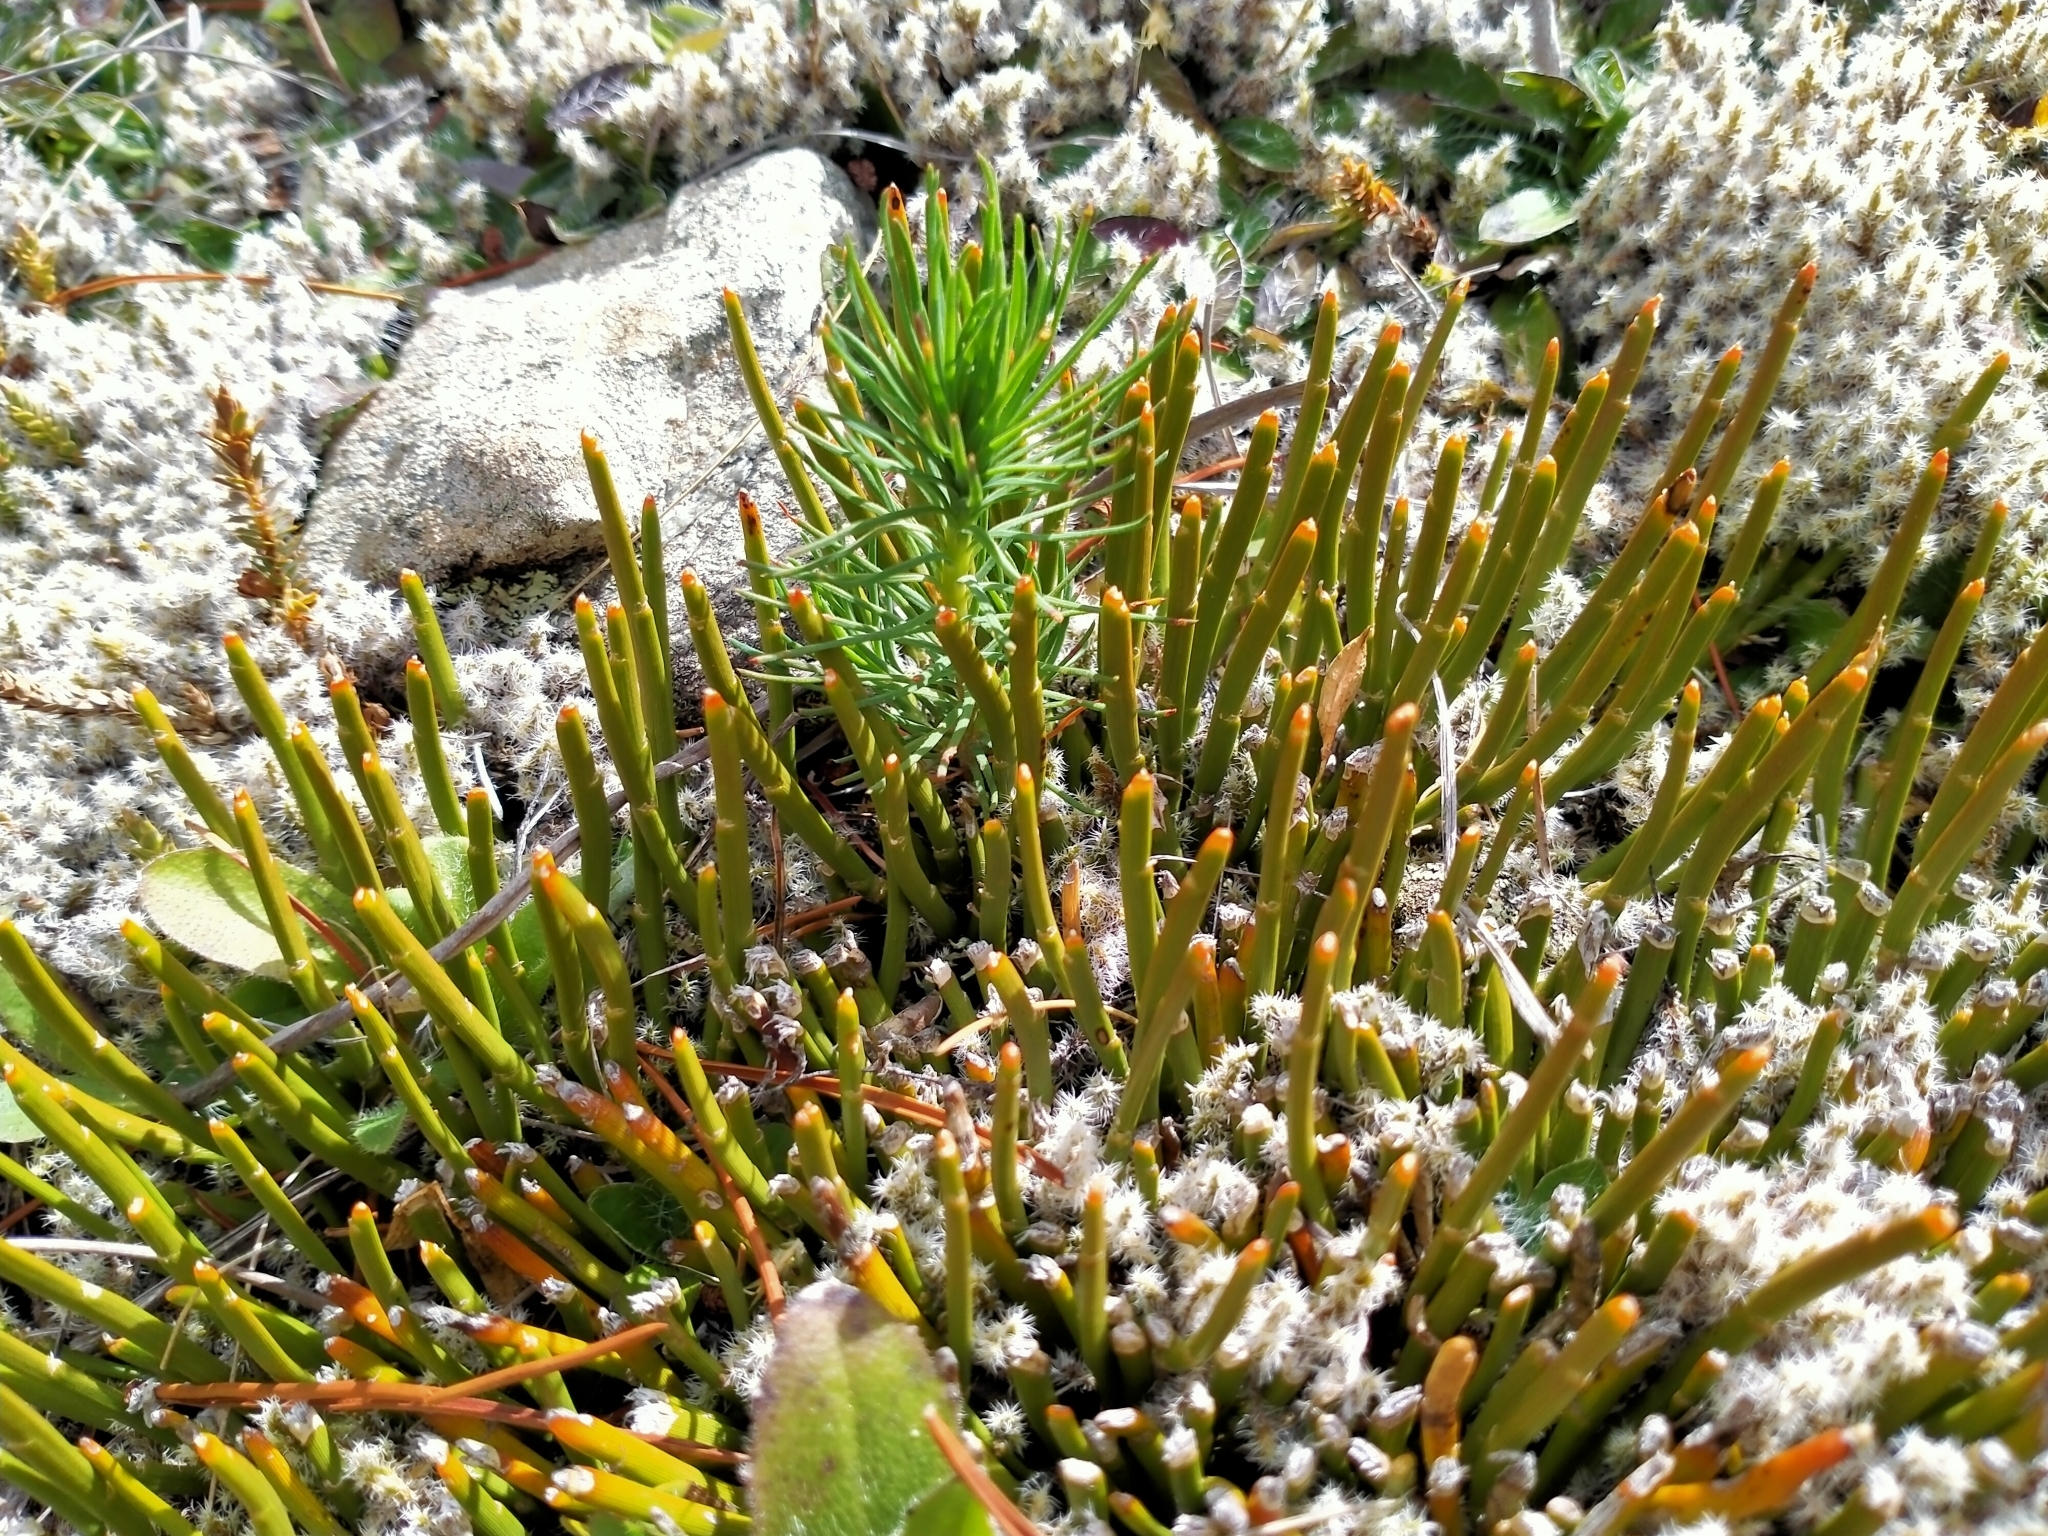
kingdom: Plantae
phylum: Tracheophyta
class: Magnoliopsida
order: Fabales
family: Fabaceae
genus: Carmichaelia
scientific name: Carmichaelia vexillata
